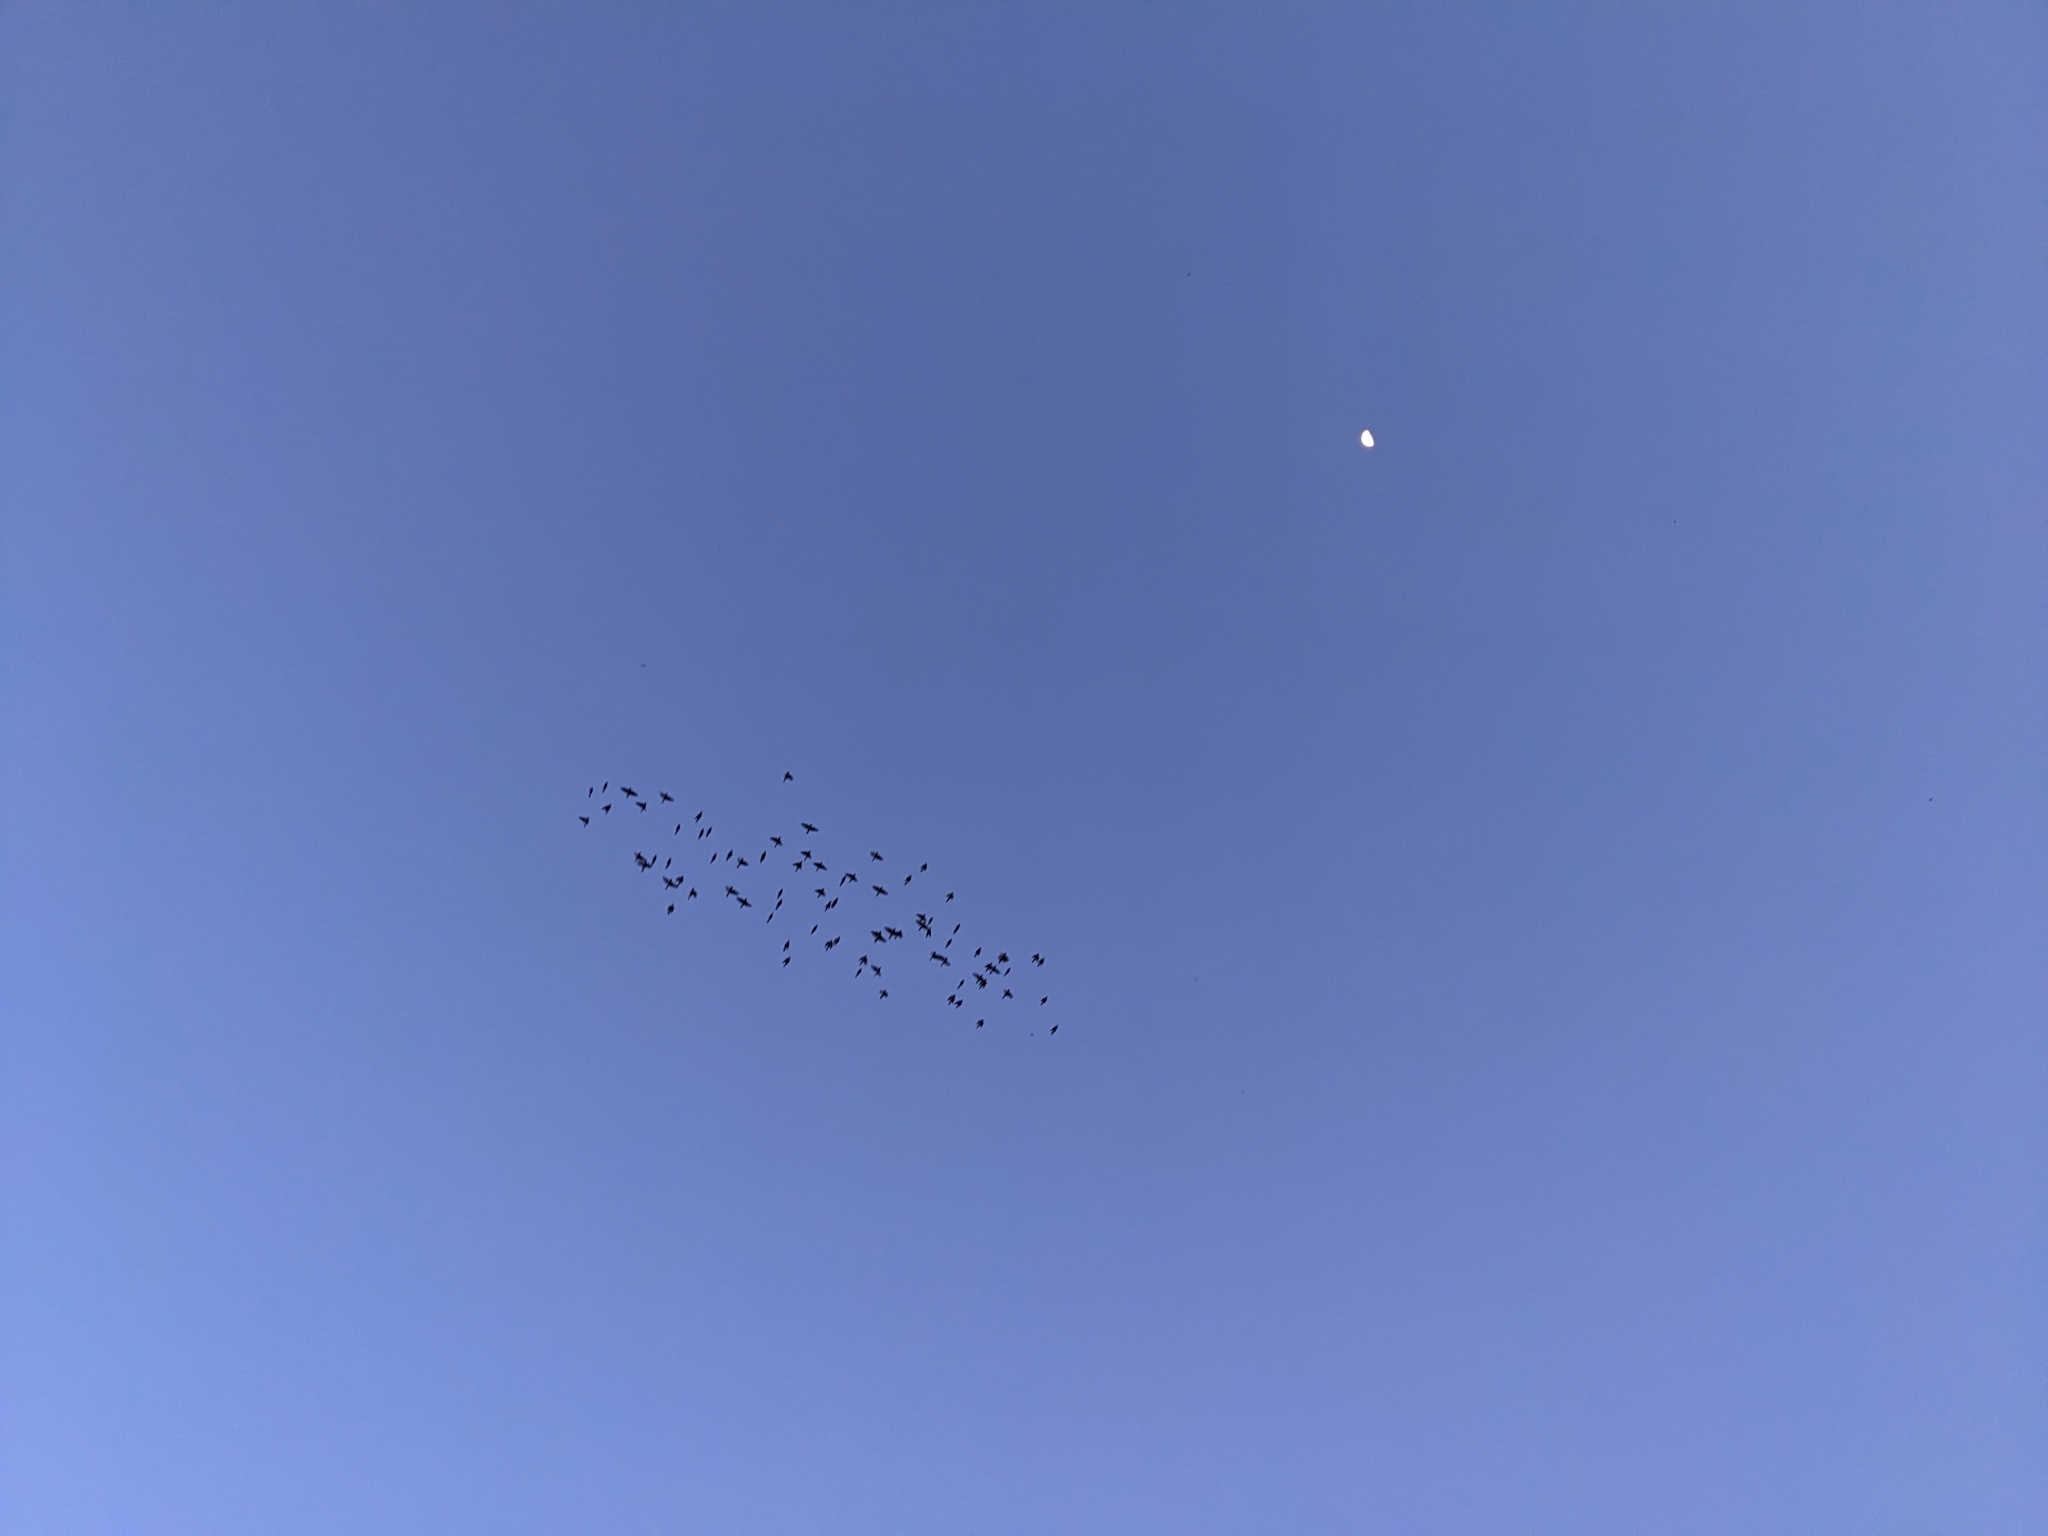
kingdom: Animalia
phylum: Chordata
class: Aves
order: Passeriformes
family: Bombycillidae
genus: Bombycilla
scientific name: Bombycilla cedrorum
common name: Cedar waxwing
